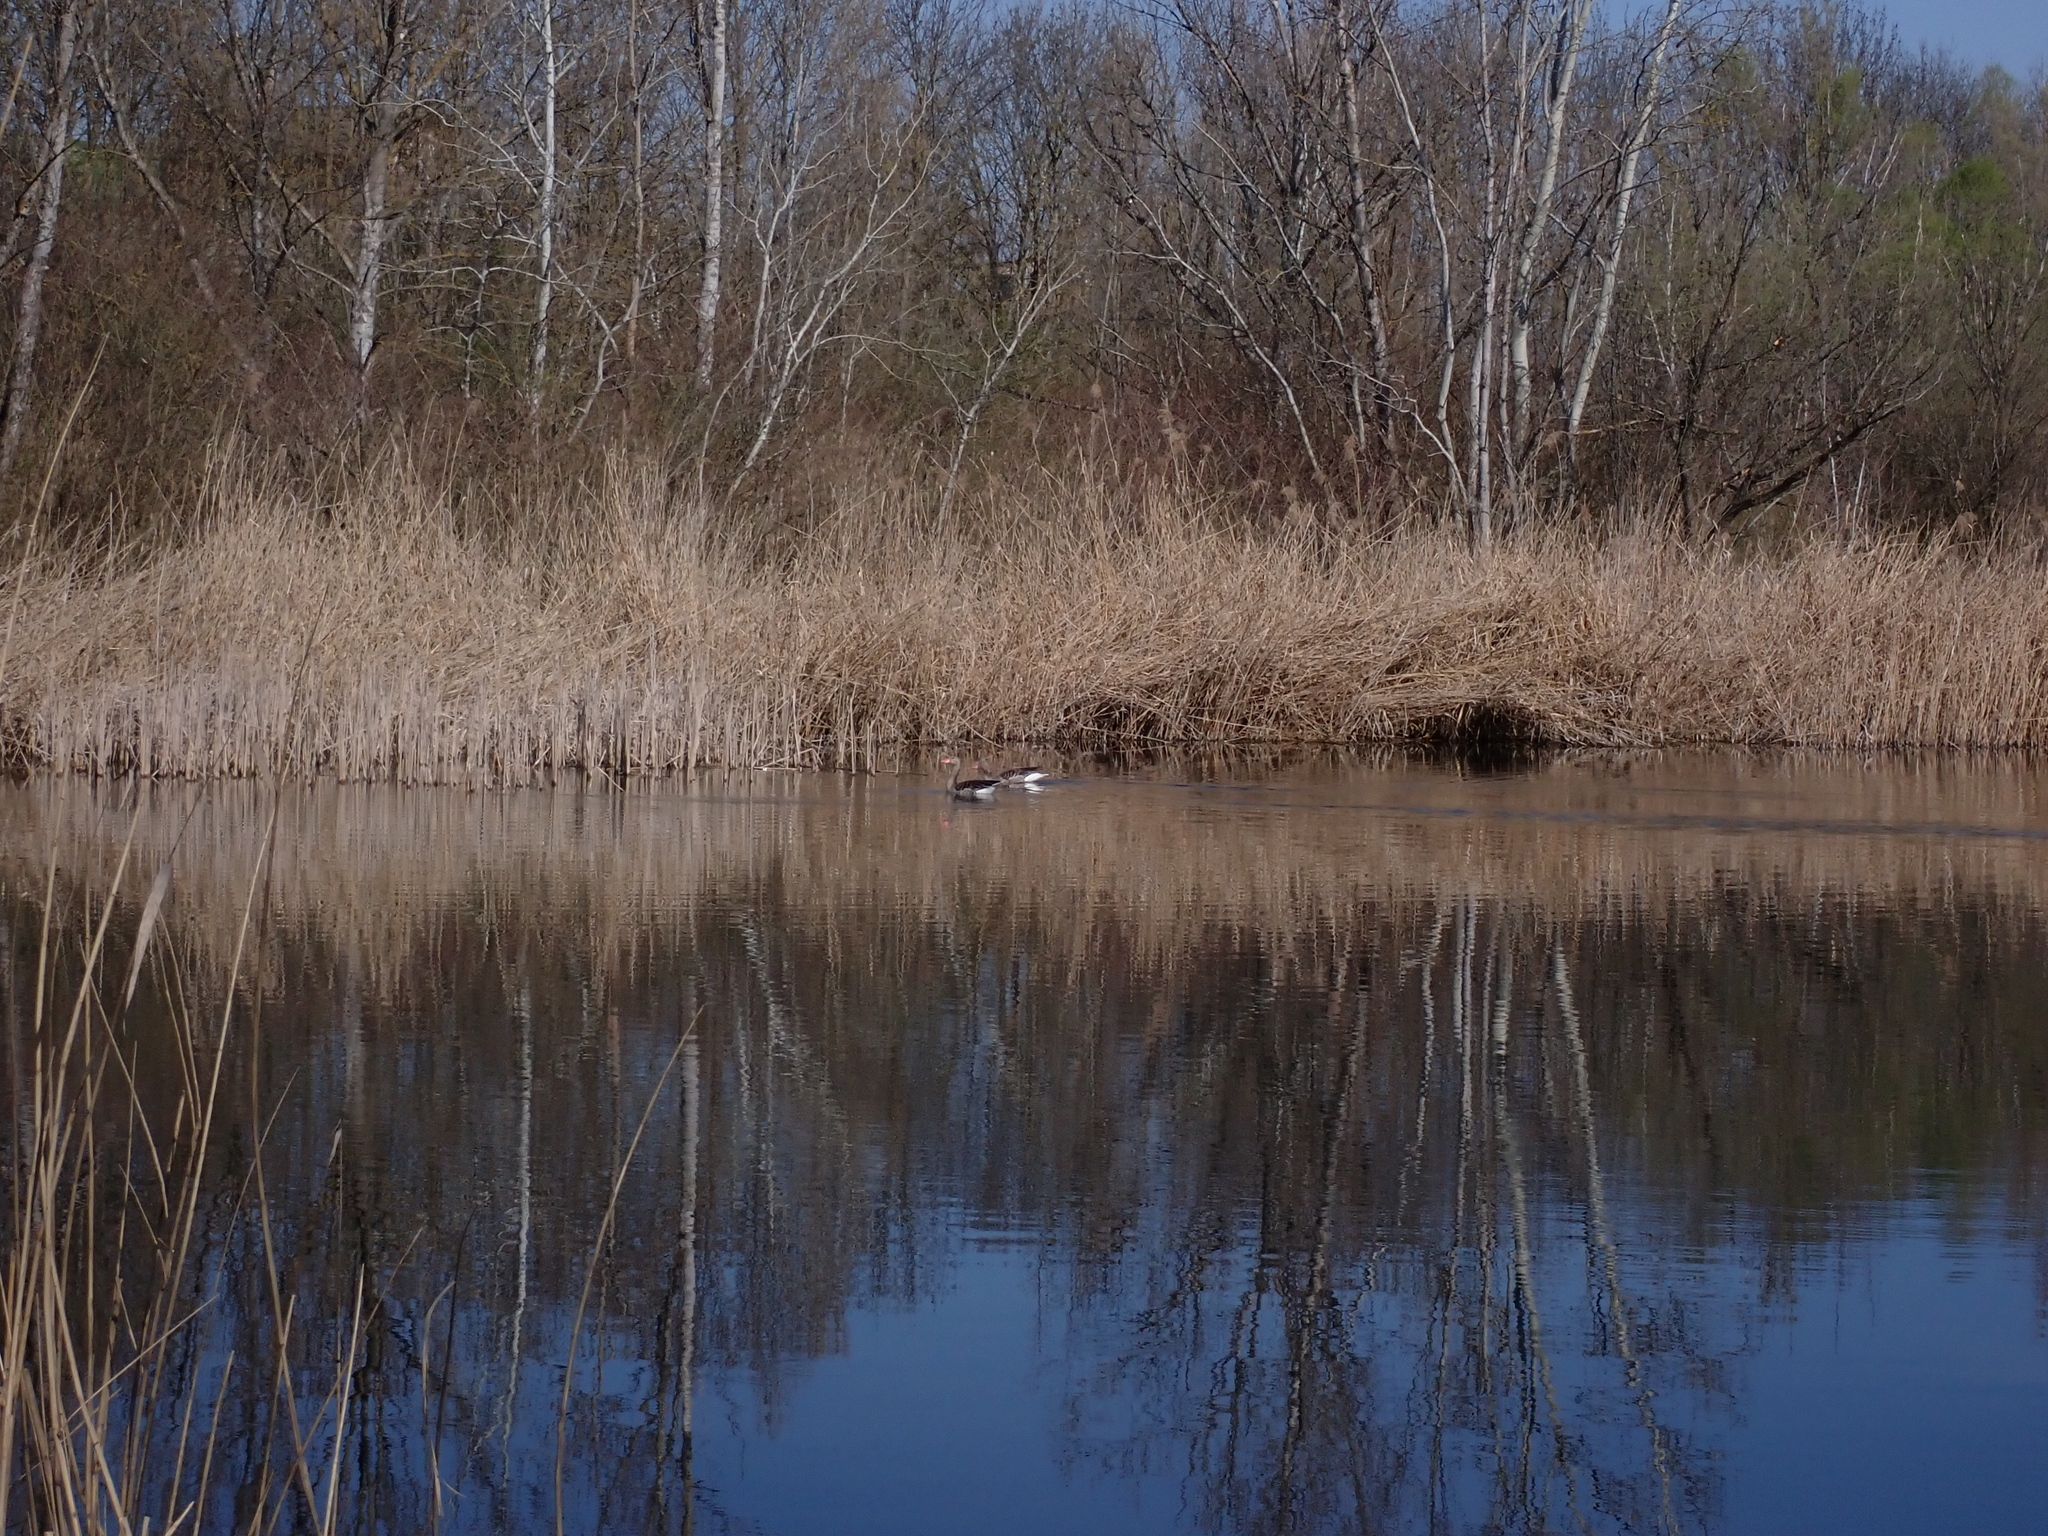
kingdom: Animalia
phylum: Chordata
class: Aves
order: Anseriformes
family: Anatidae
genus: Anser
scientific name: Anser anser
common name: Greylag goose
